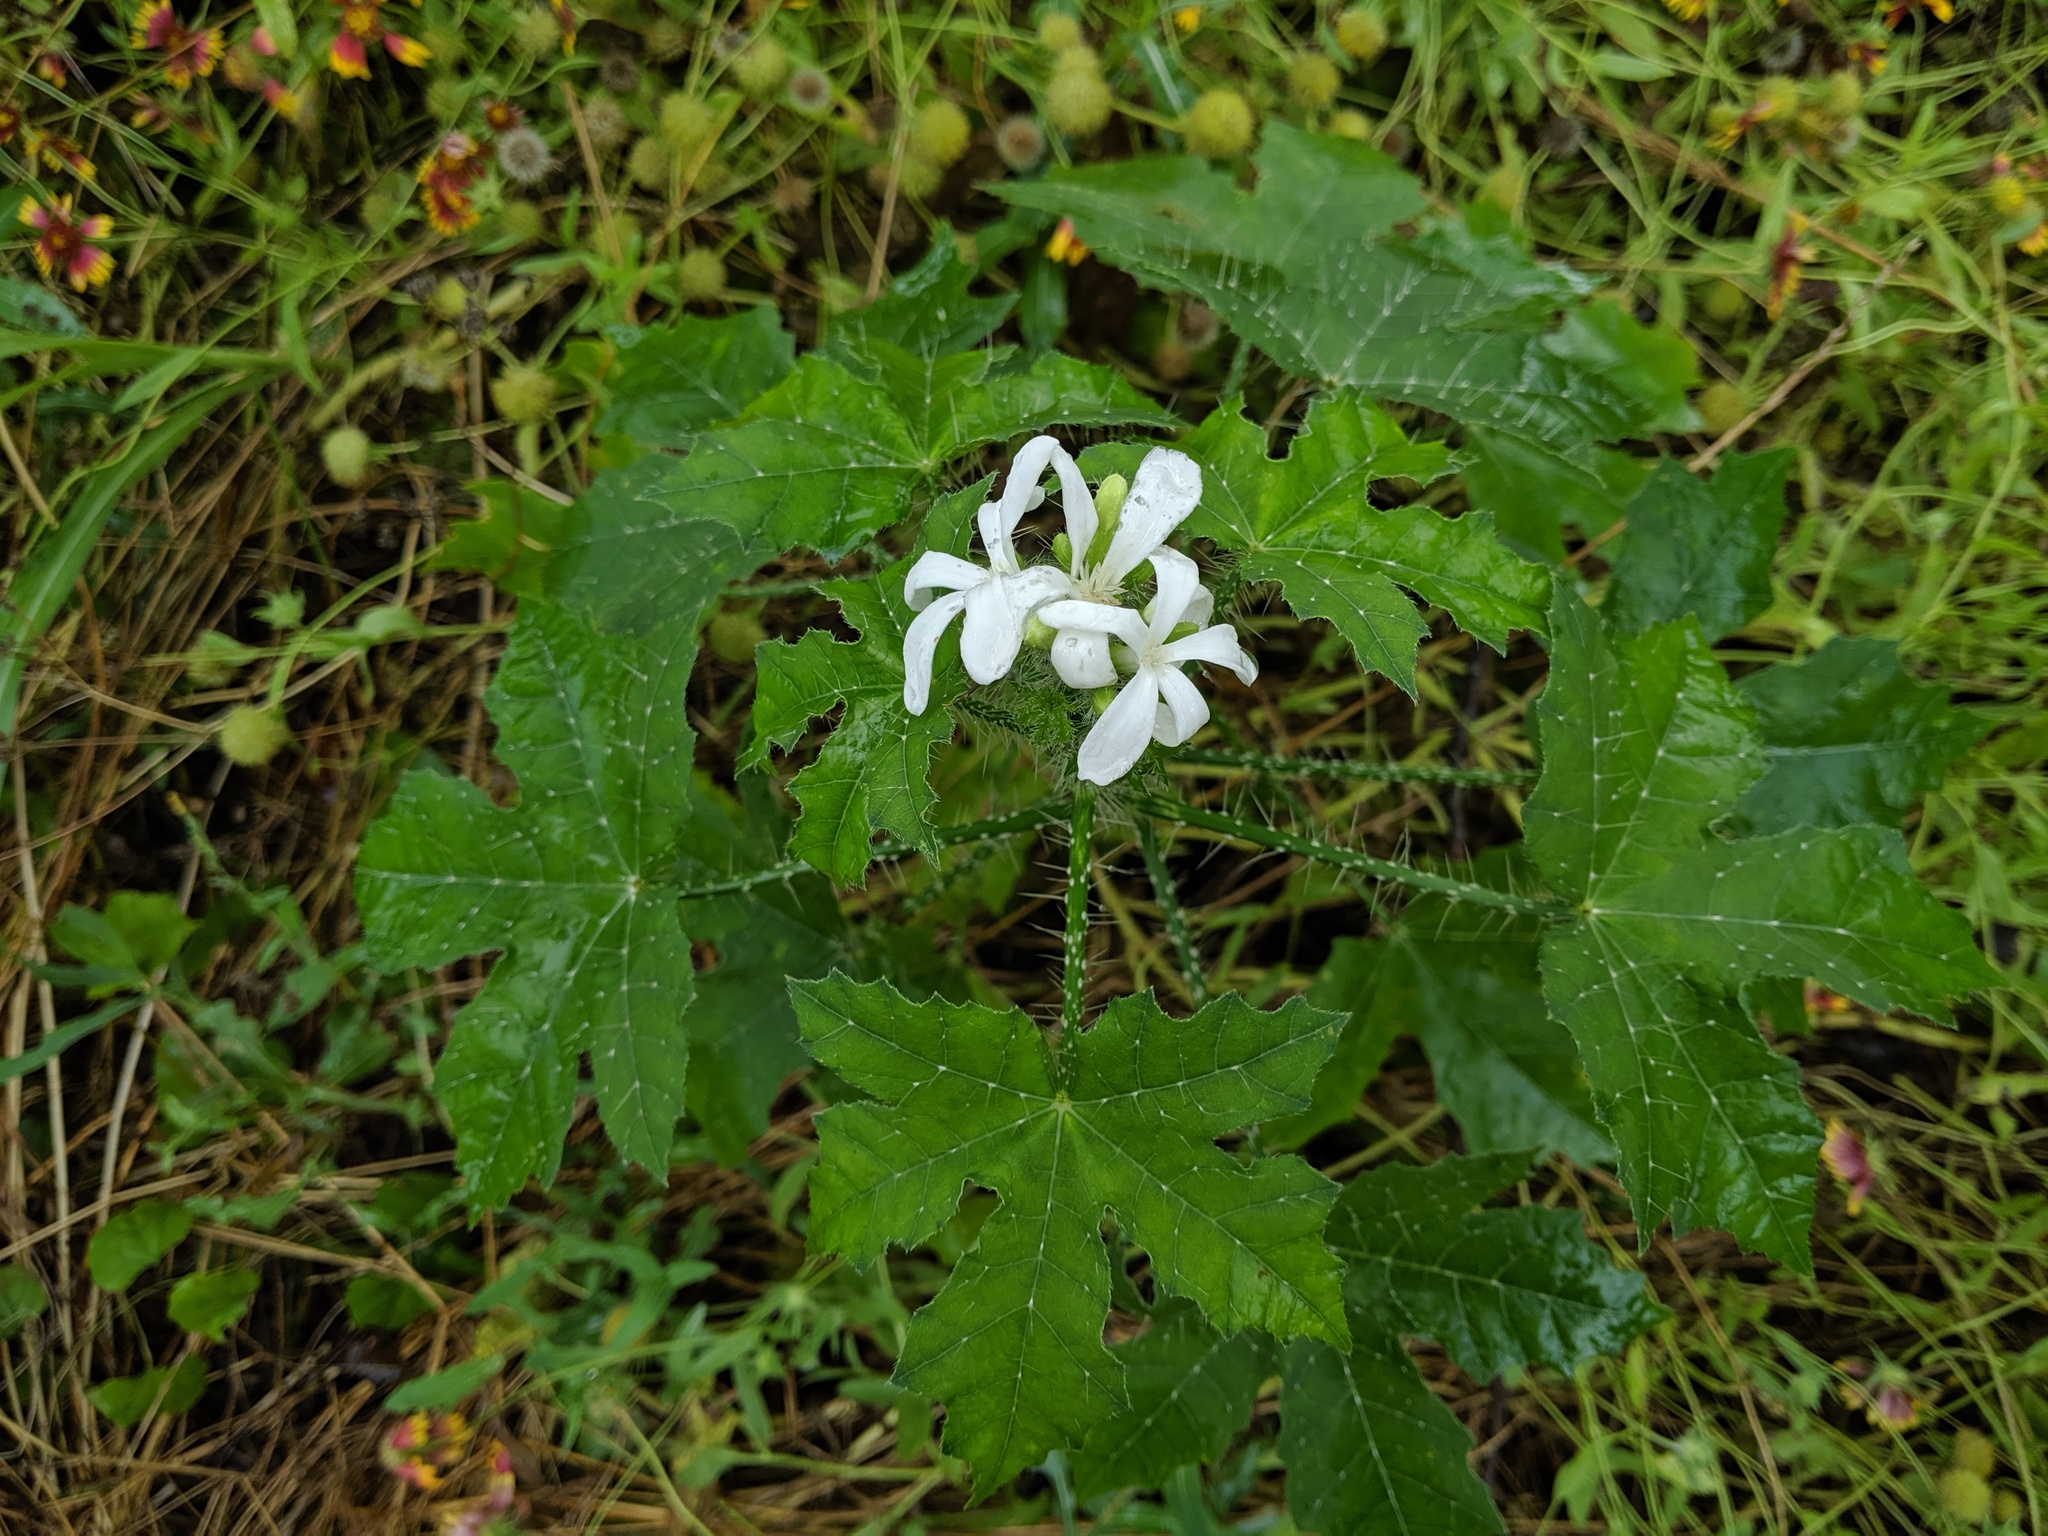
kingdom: Plantae
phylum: Tracheophyta
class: Magnoliopsida
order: Malpighiales
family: Euphorbiaceae
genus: Cnidoscolus
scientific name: Cnidoscolus texanus
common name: Texas bull-nettle
